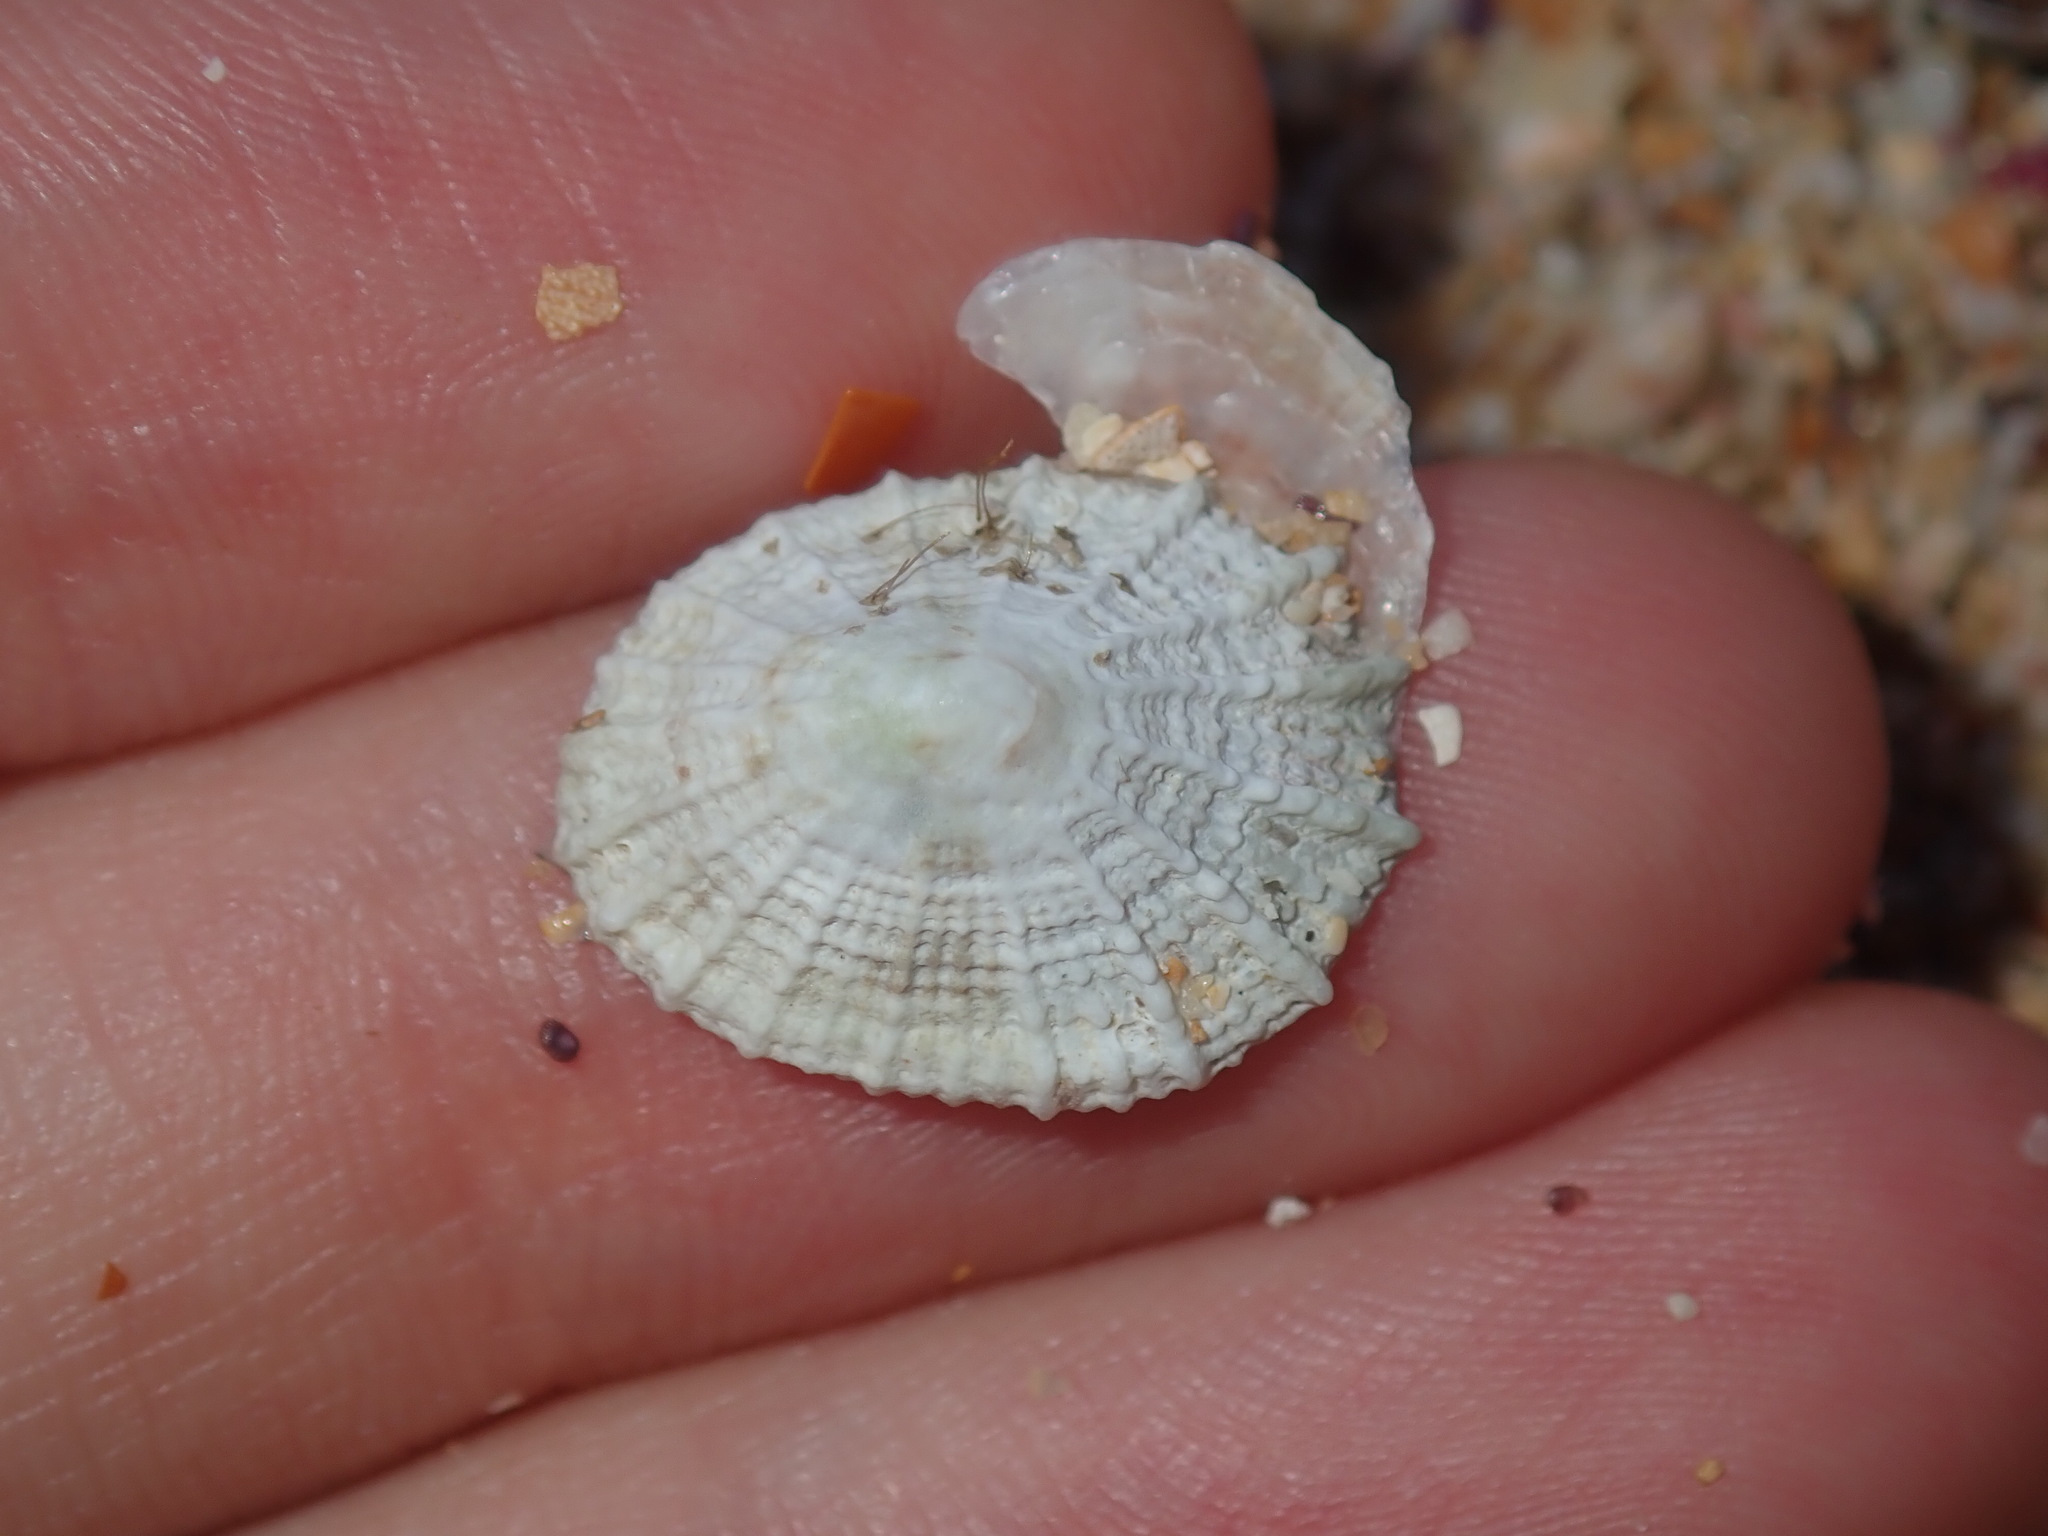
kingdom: Animalia
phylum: Mollusca
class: Gastropoda
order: Lepetellida
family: Fissurellidae
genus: Montfortula
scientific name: Montfortula rugosa
